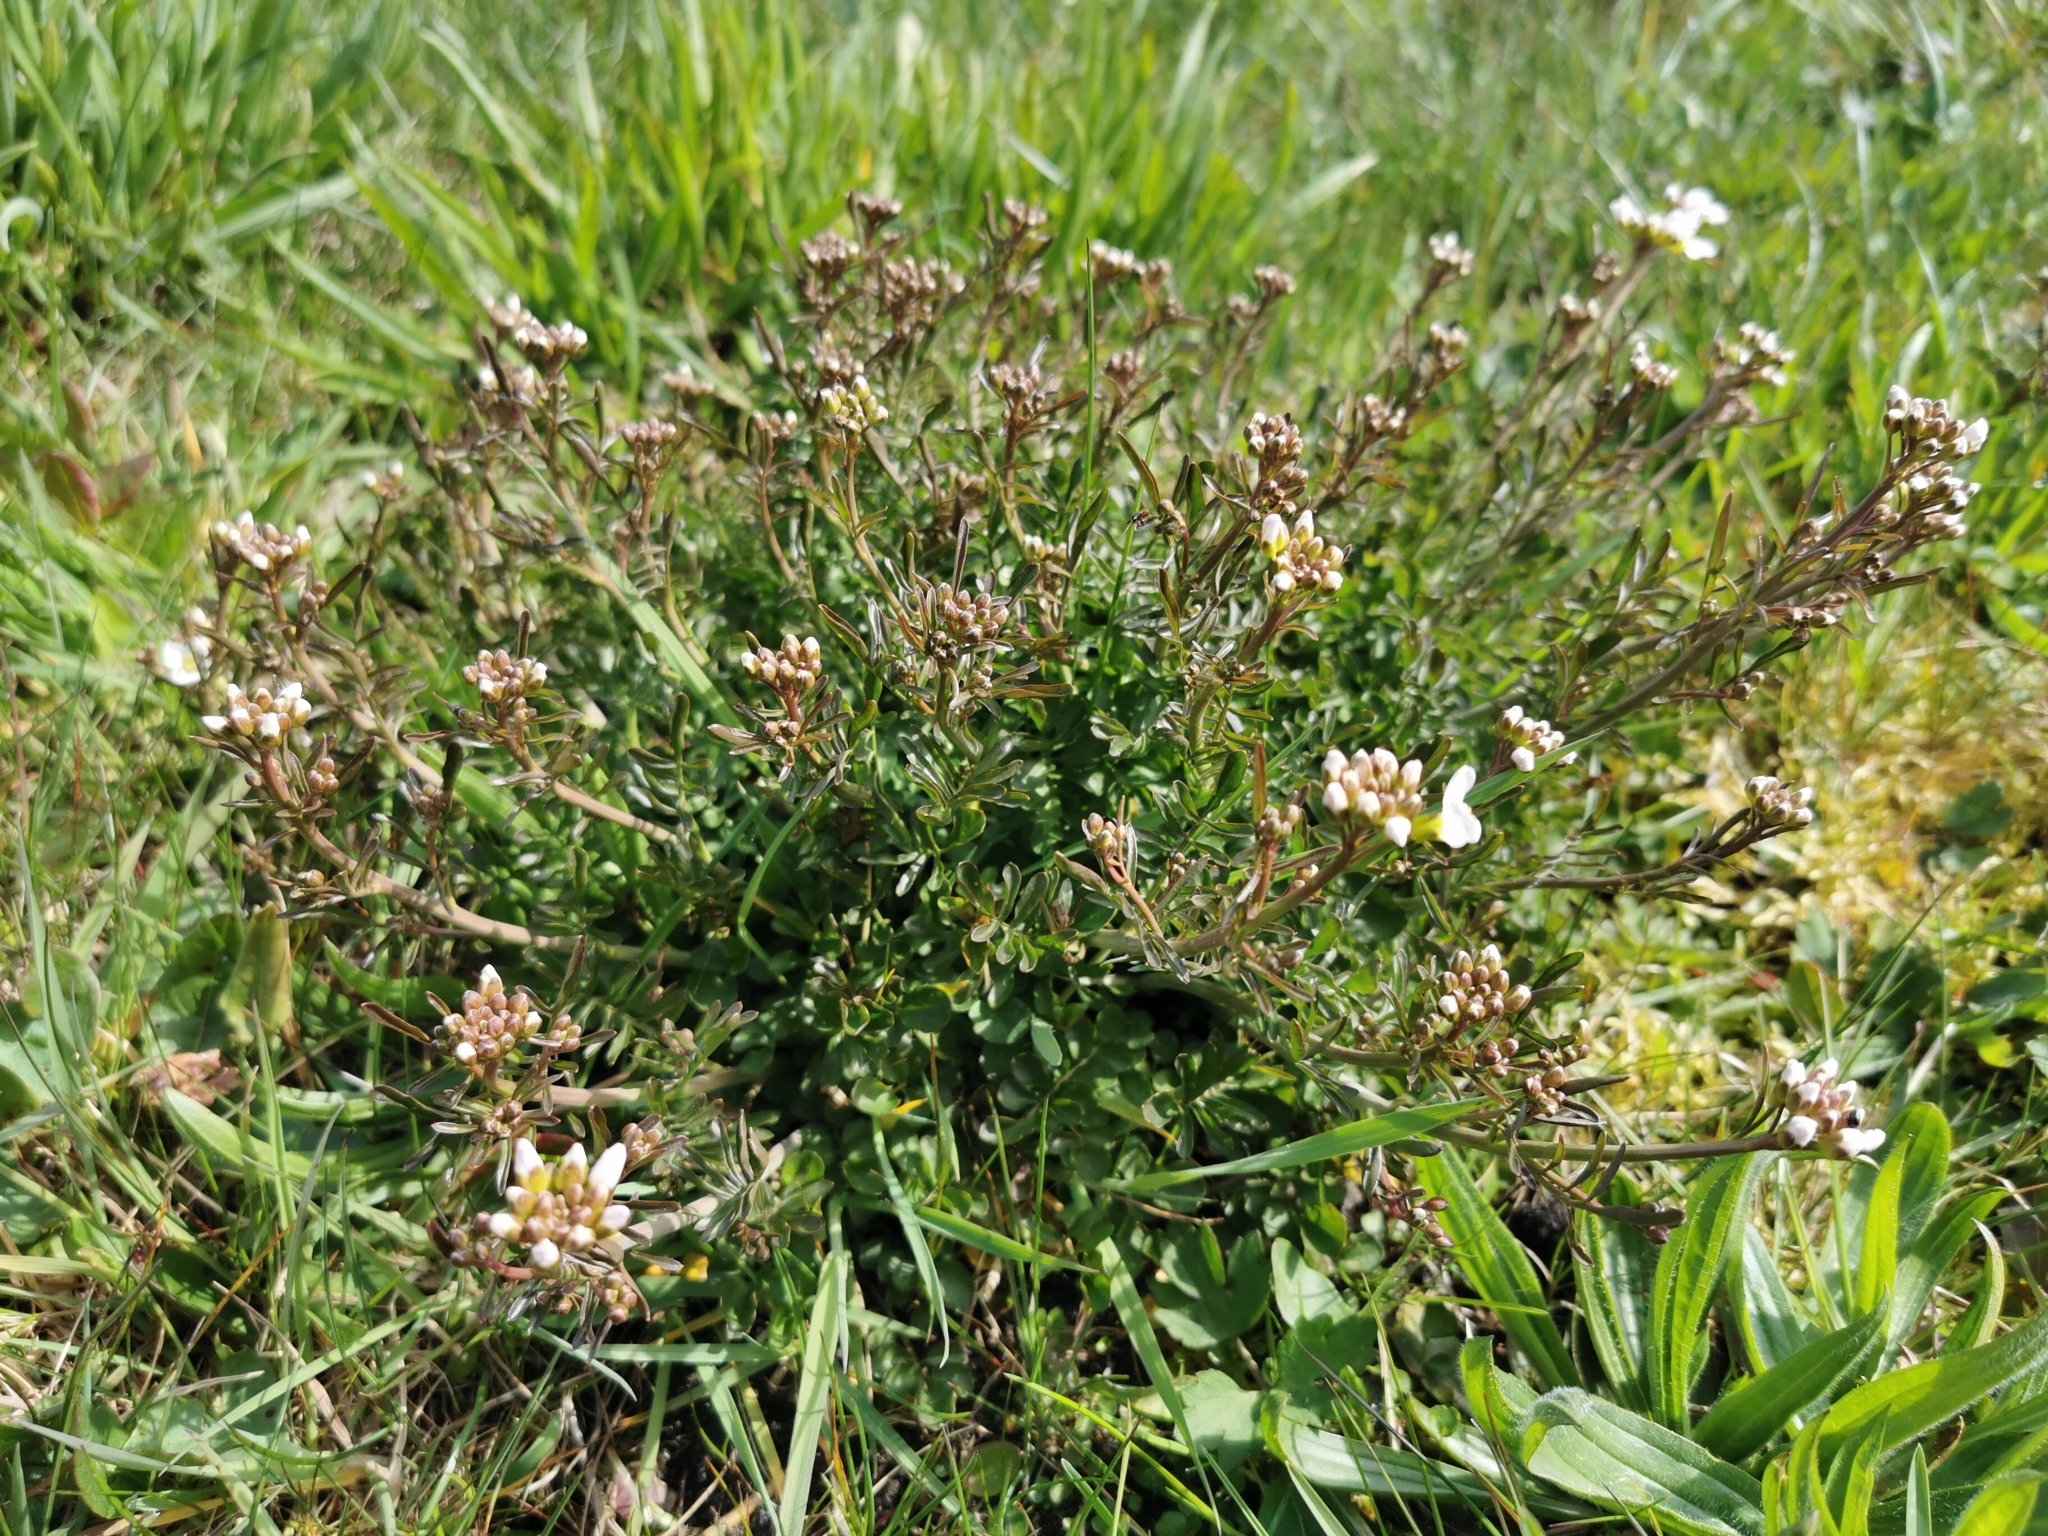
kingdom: Plantae
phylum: Tracheophyta
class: Magnoliopsida
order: Brassicales
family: Brassicaceae
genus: Cardamine
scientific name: Cardamine pratensis
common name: Cuckoo flower
